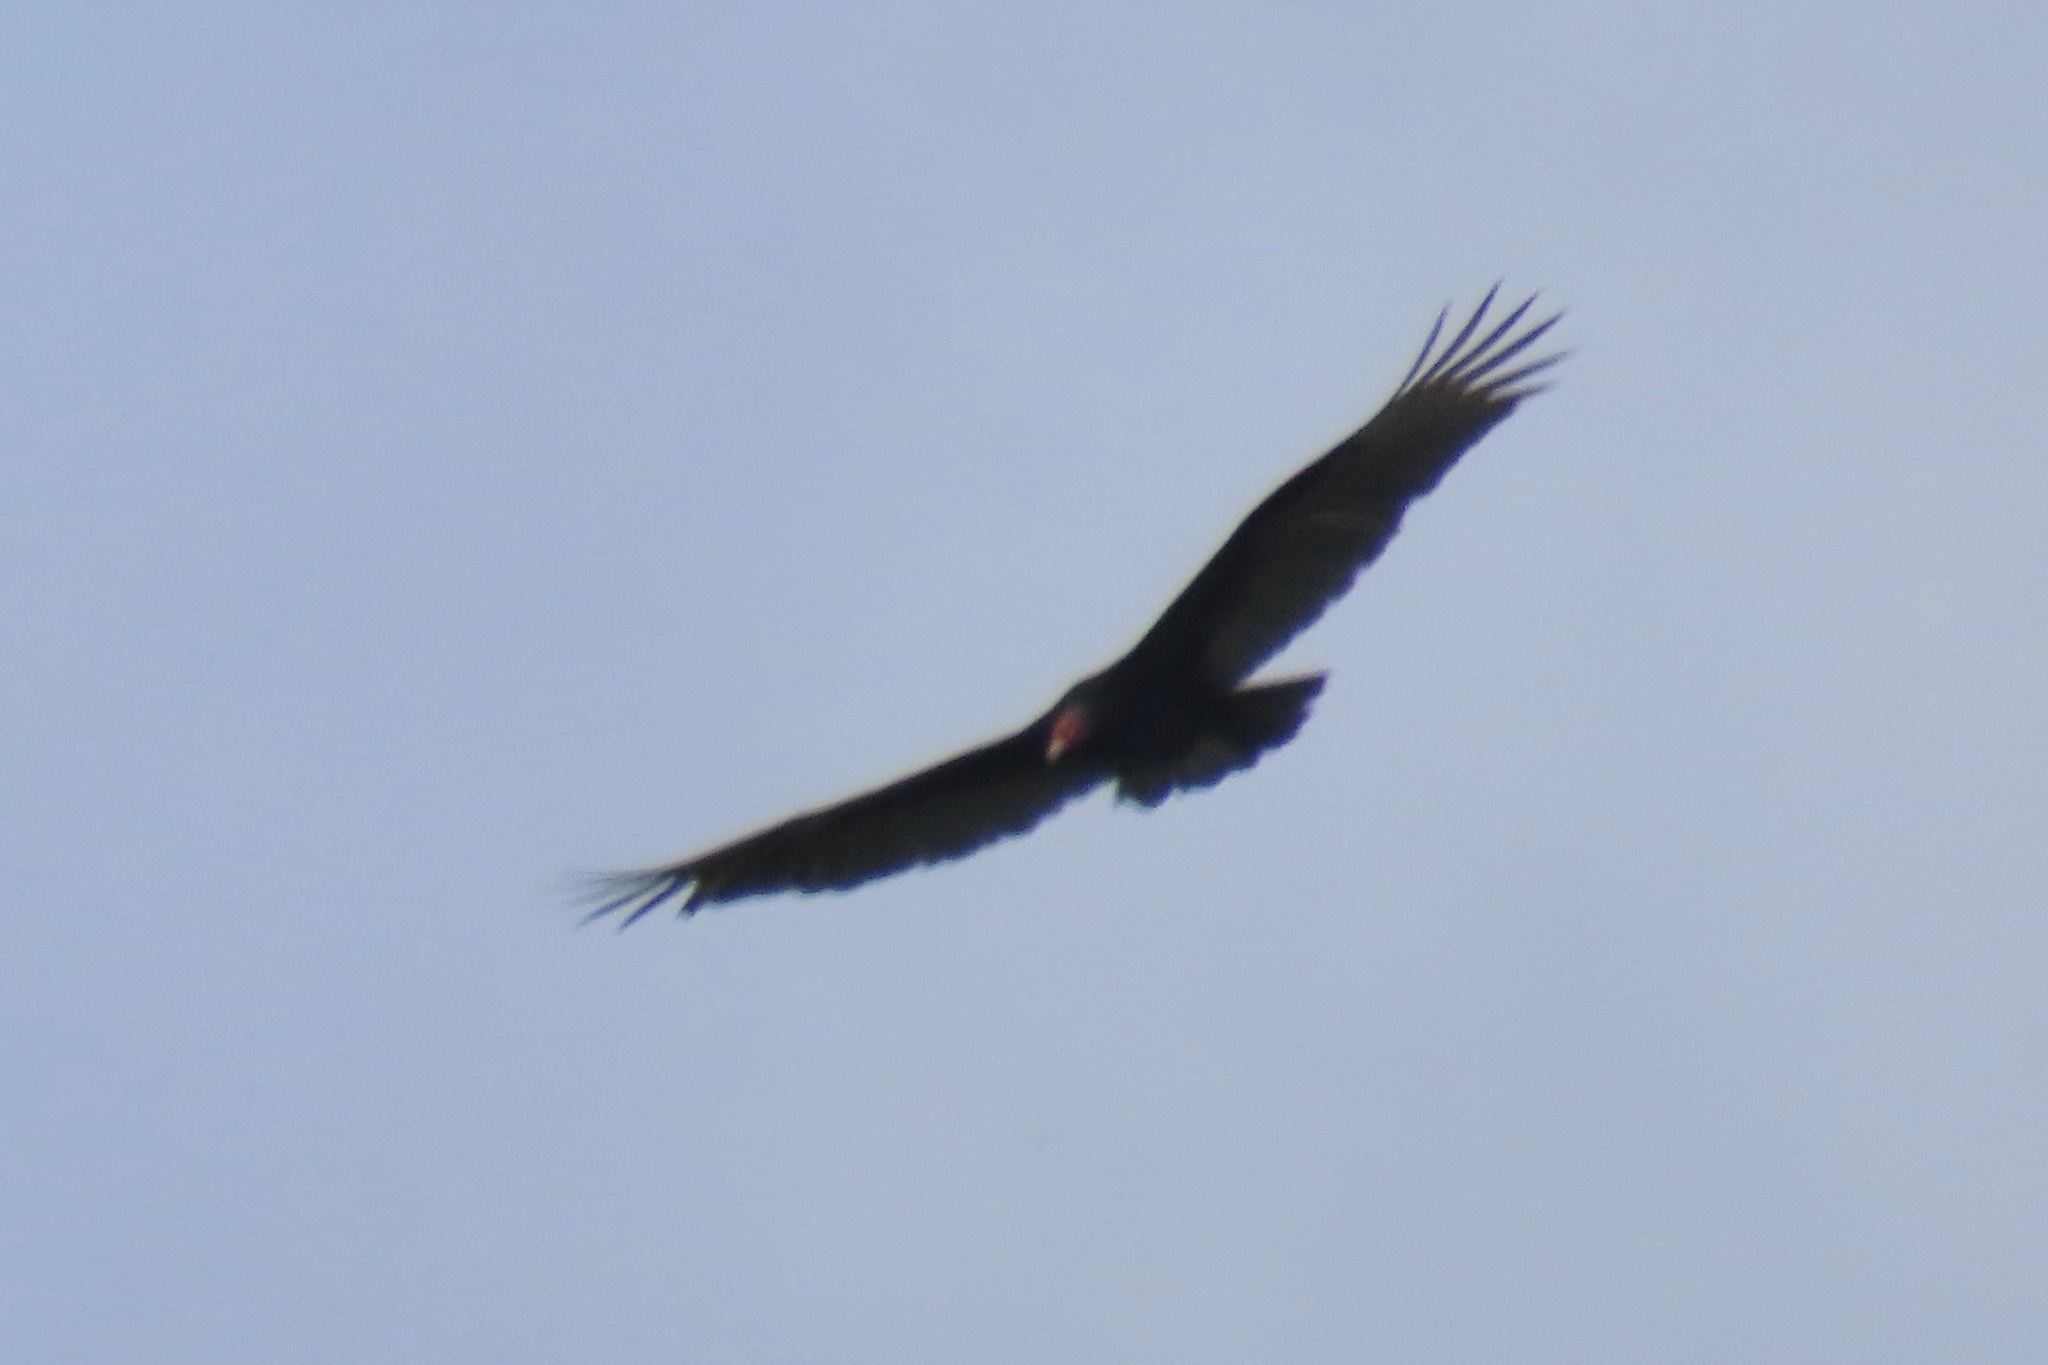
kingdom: Animalia
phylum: Chordata
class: Aves
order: Accipitriformes
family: Cathartidae
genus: Cathartes
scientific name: Cathartes aura
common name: Turkey vulture
